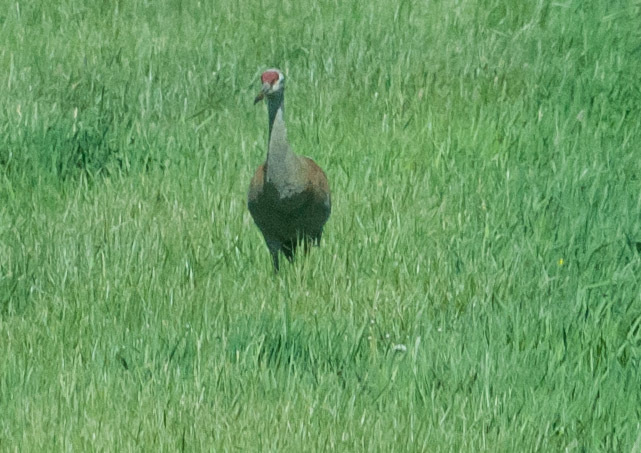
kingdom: Animalia
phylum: Chordata
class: Aves
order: Gruiformes
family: Gruidae
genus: Grus
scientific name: Grus canadensis
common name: Sandhill crane
